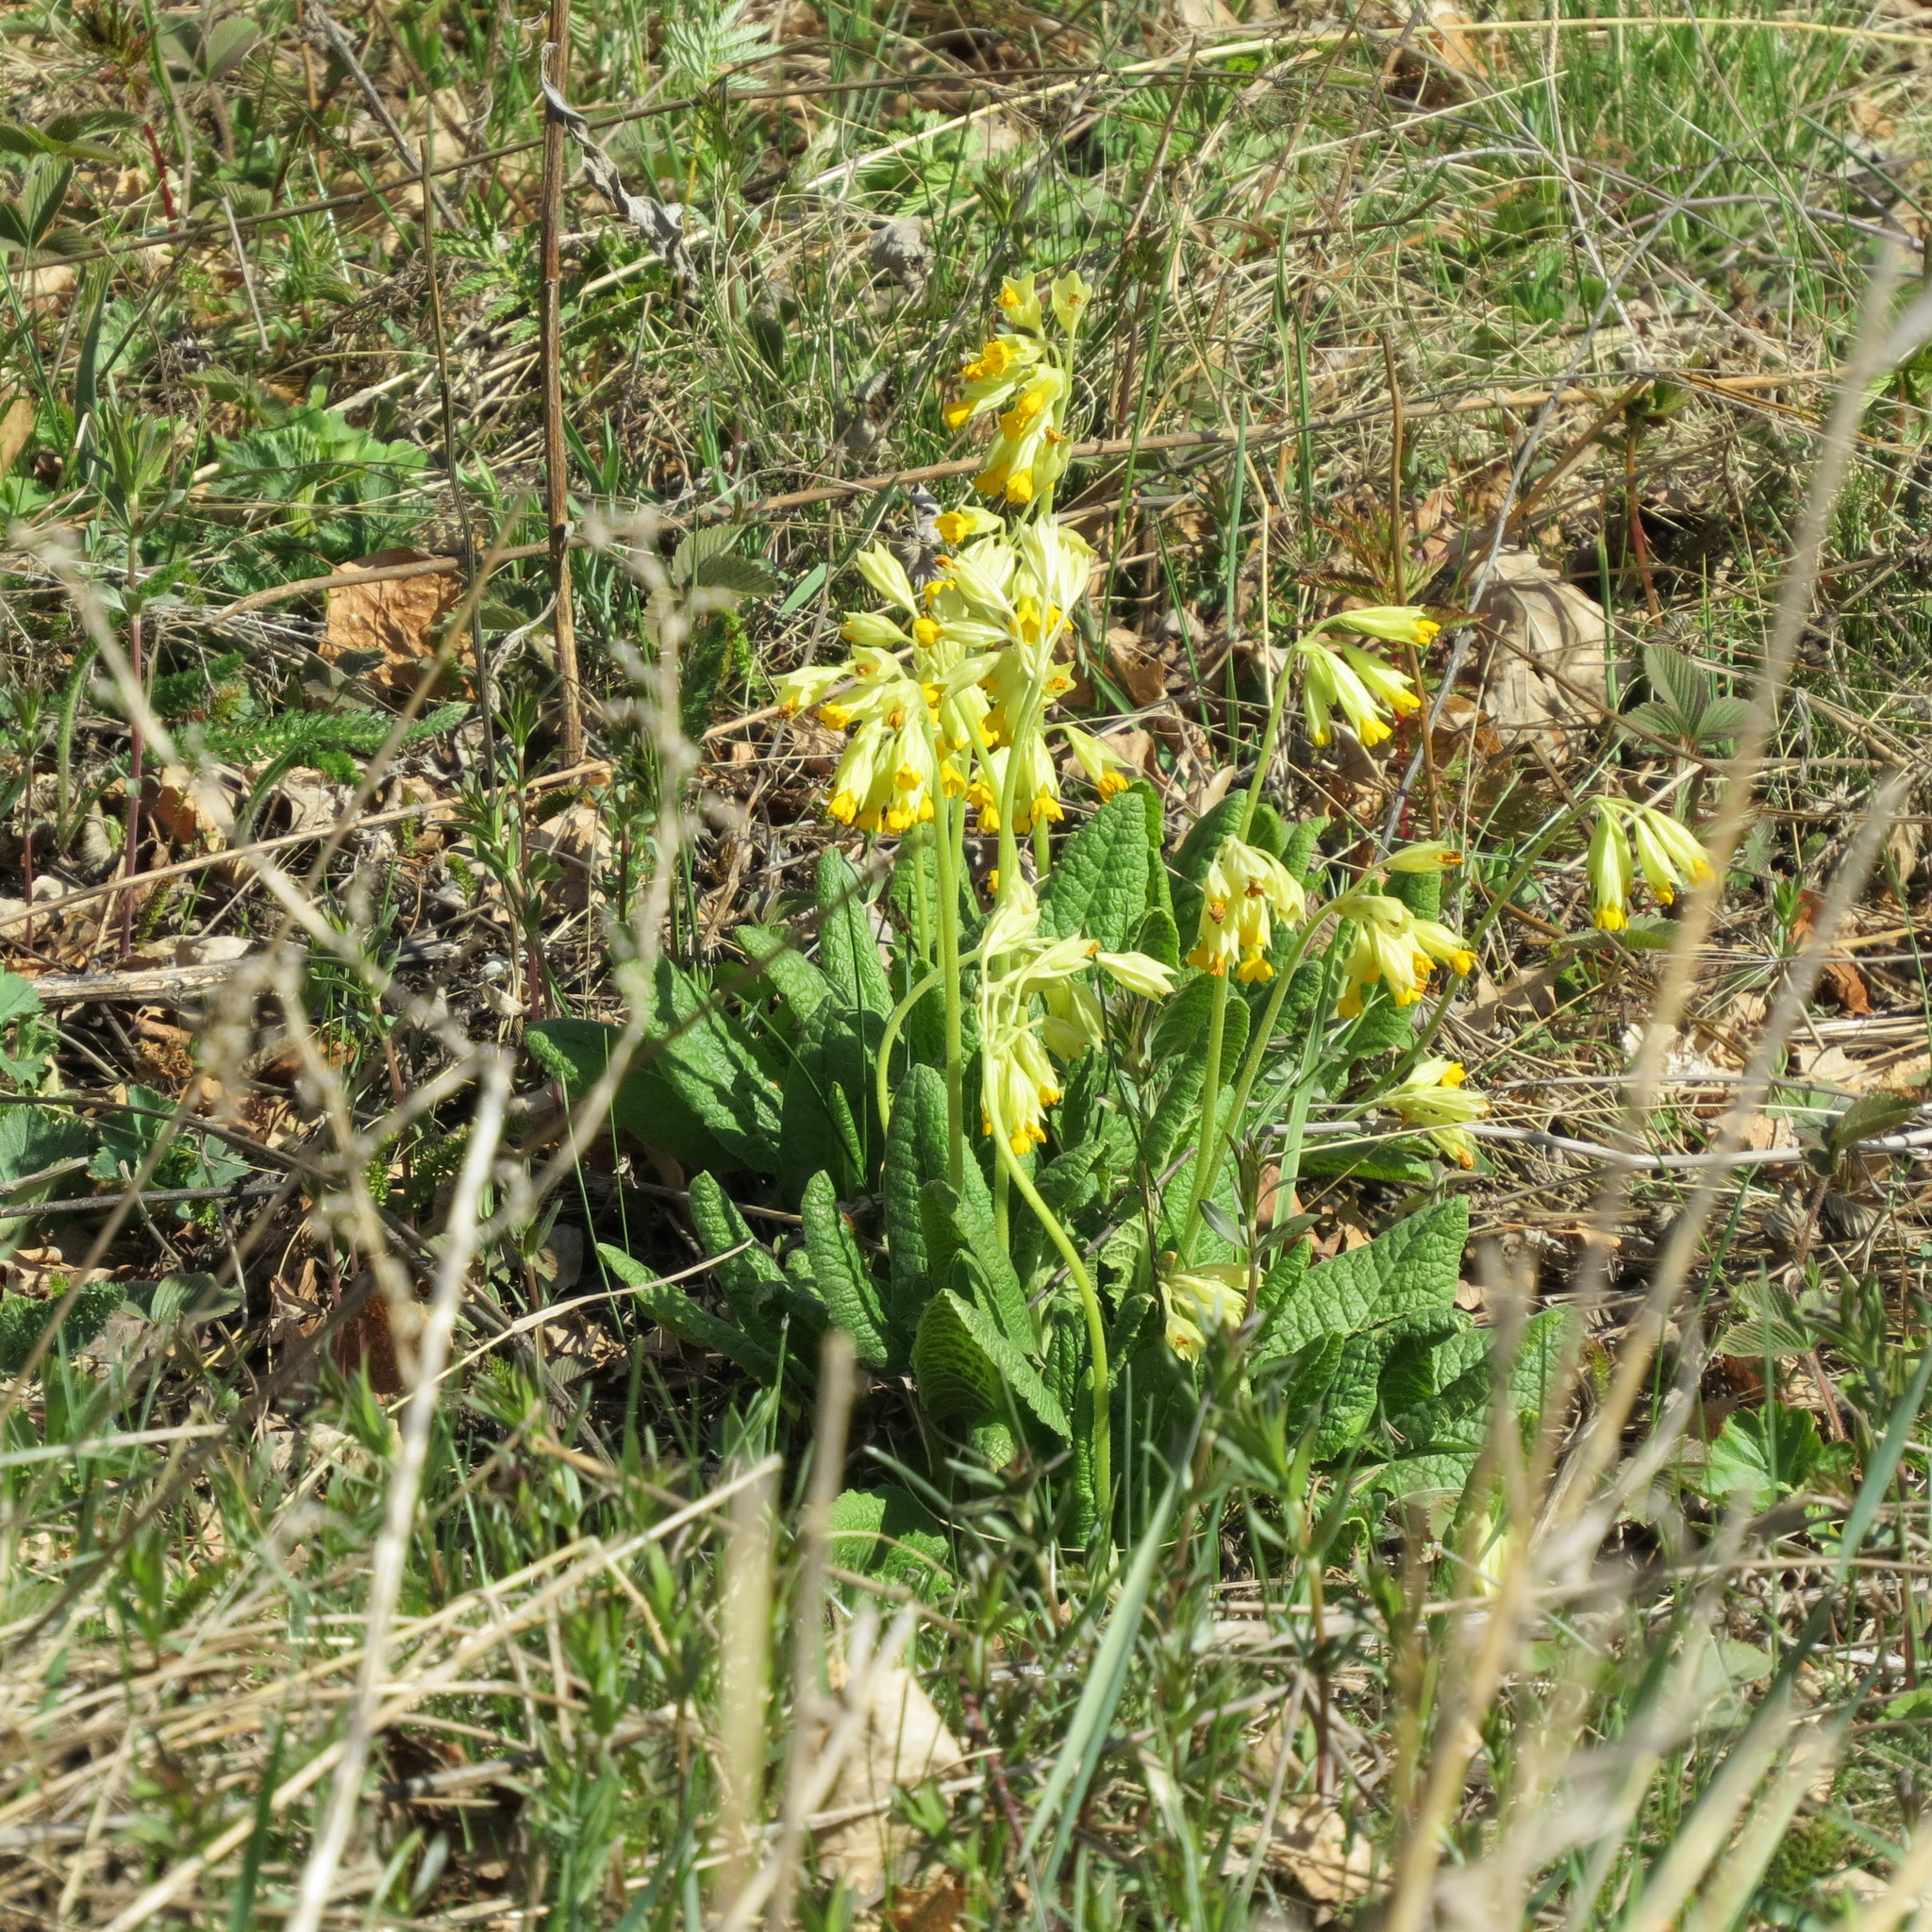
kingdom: Plantae
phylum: Tracheophyta
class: Magnoliopsida
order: Ericales
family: Primulaceae
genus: Primula
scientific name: Primula veris
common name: Cowslip
